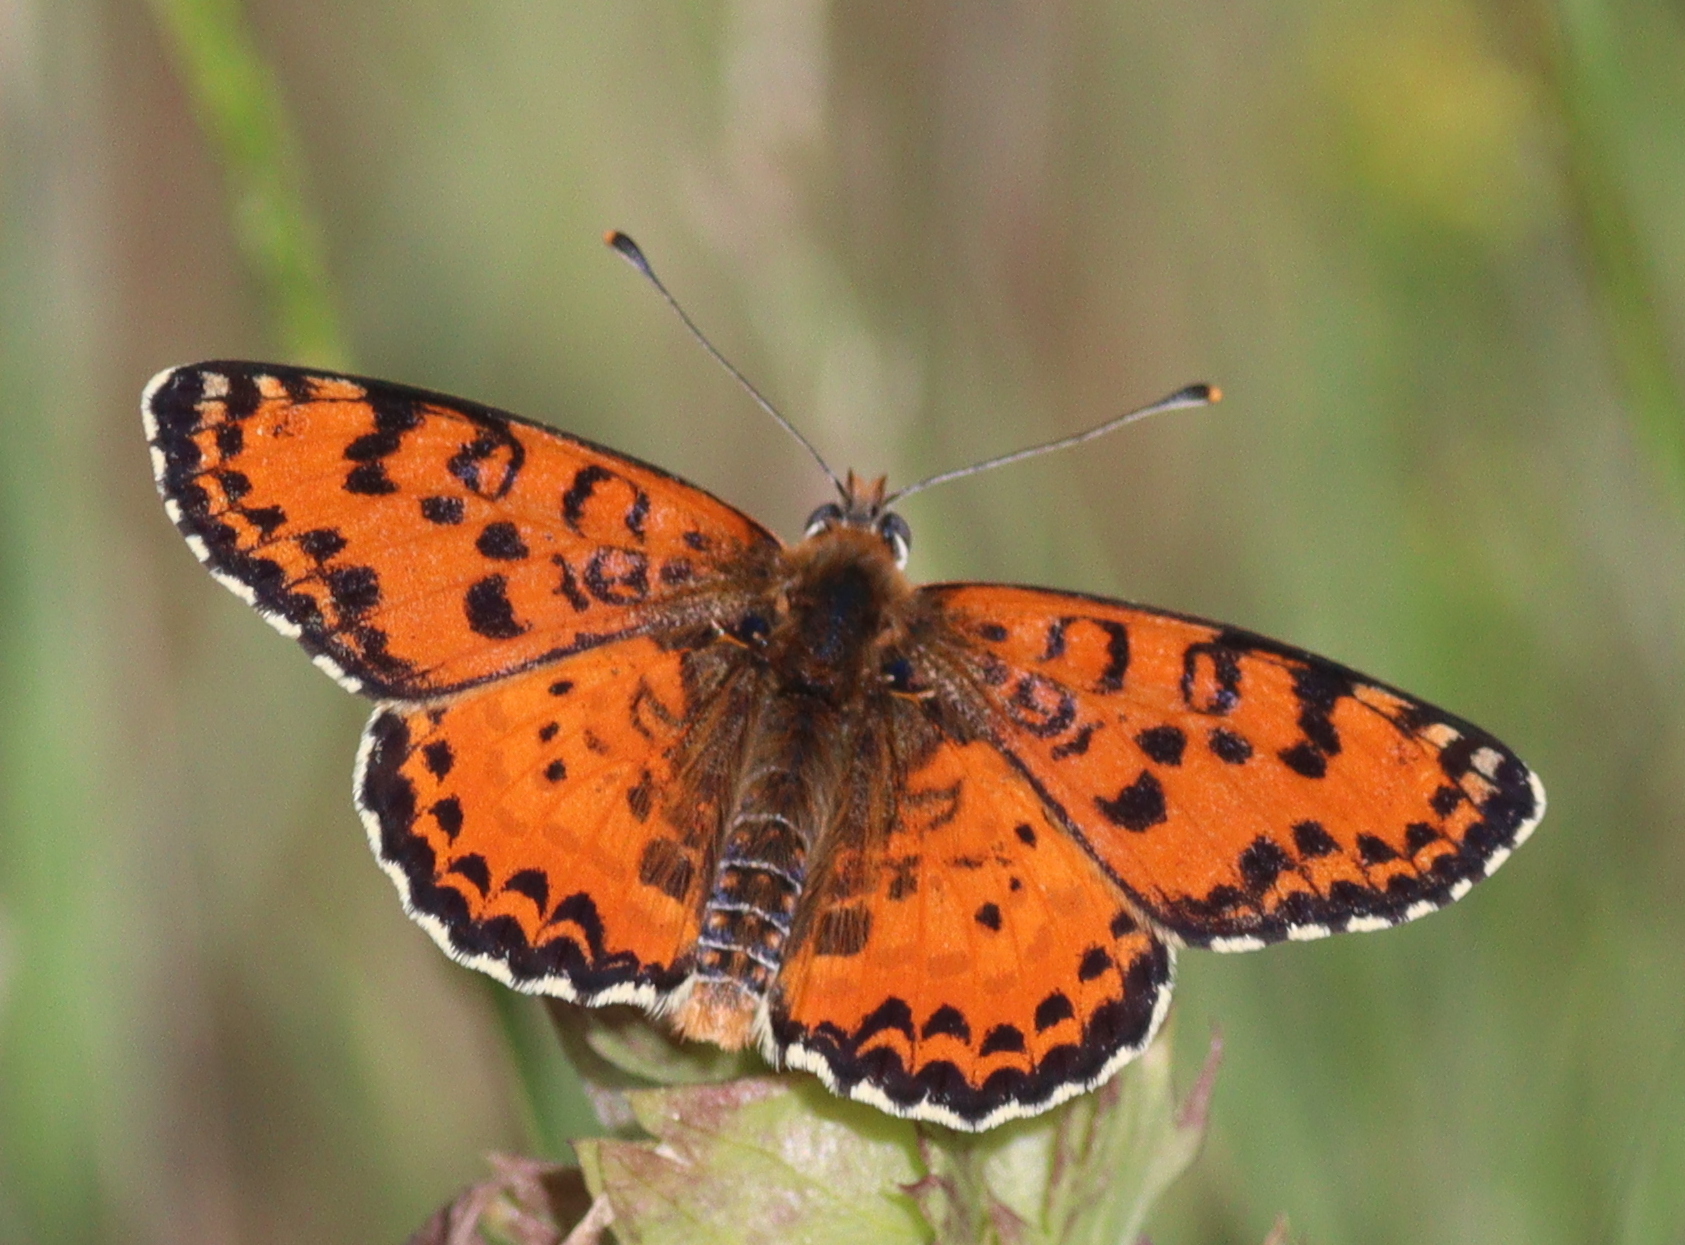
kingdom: Animalia
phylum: Arthropoda
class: Insecta
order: Lepidoptera
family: Nymphalidae
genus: Melitaea
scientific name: Melitaea didyma
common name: Spotted fritillary
